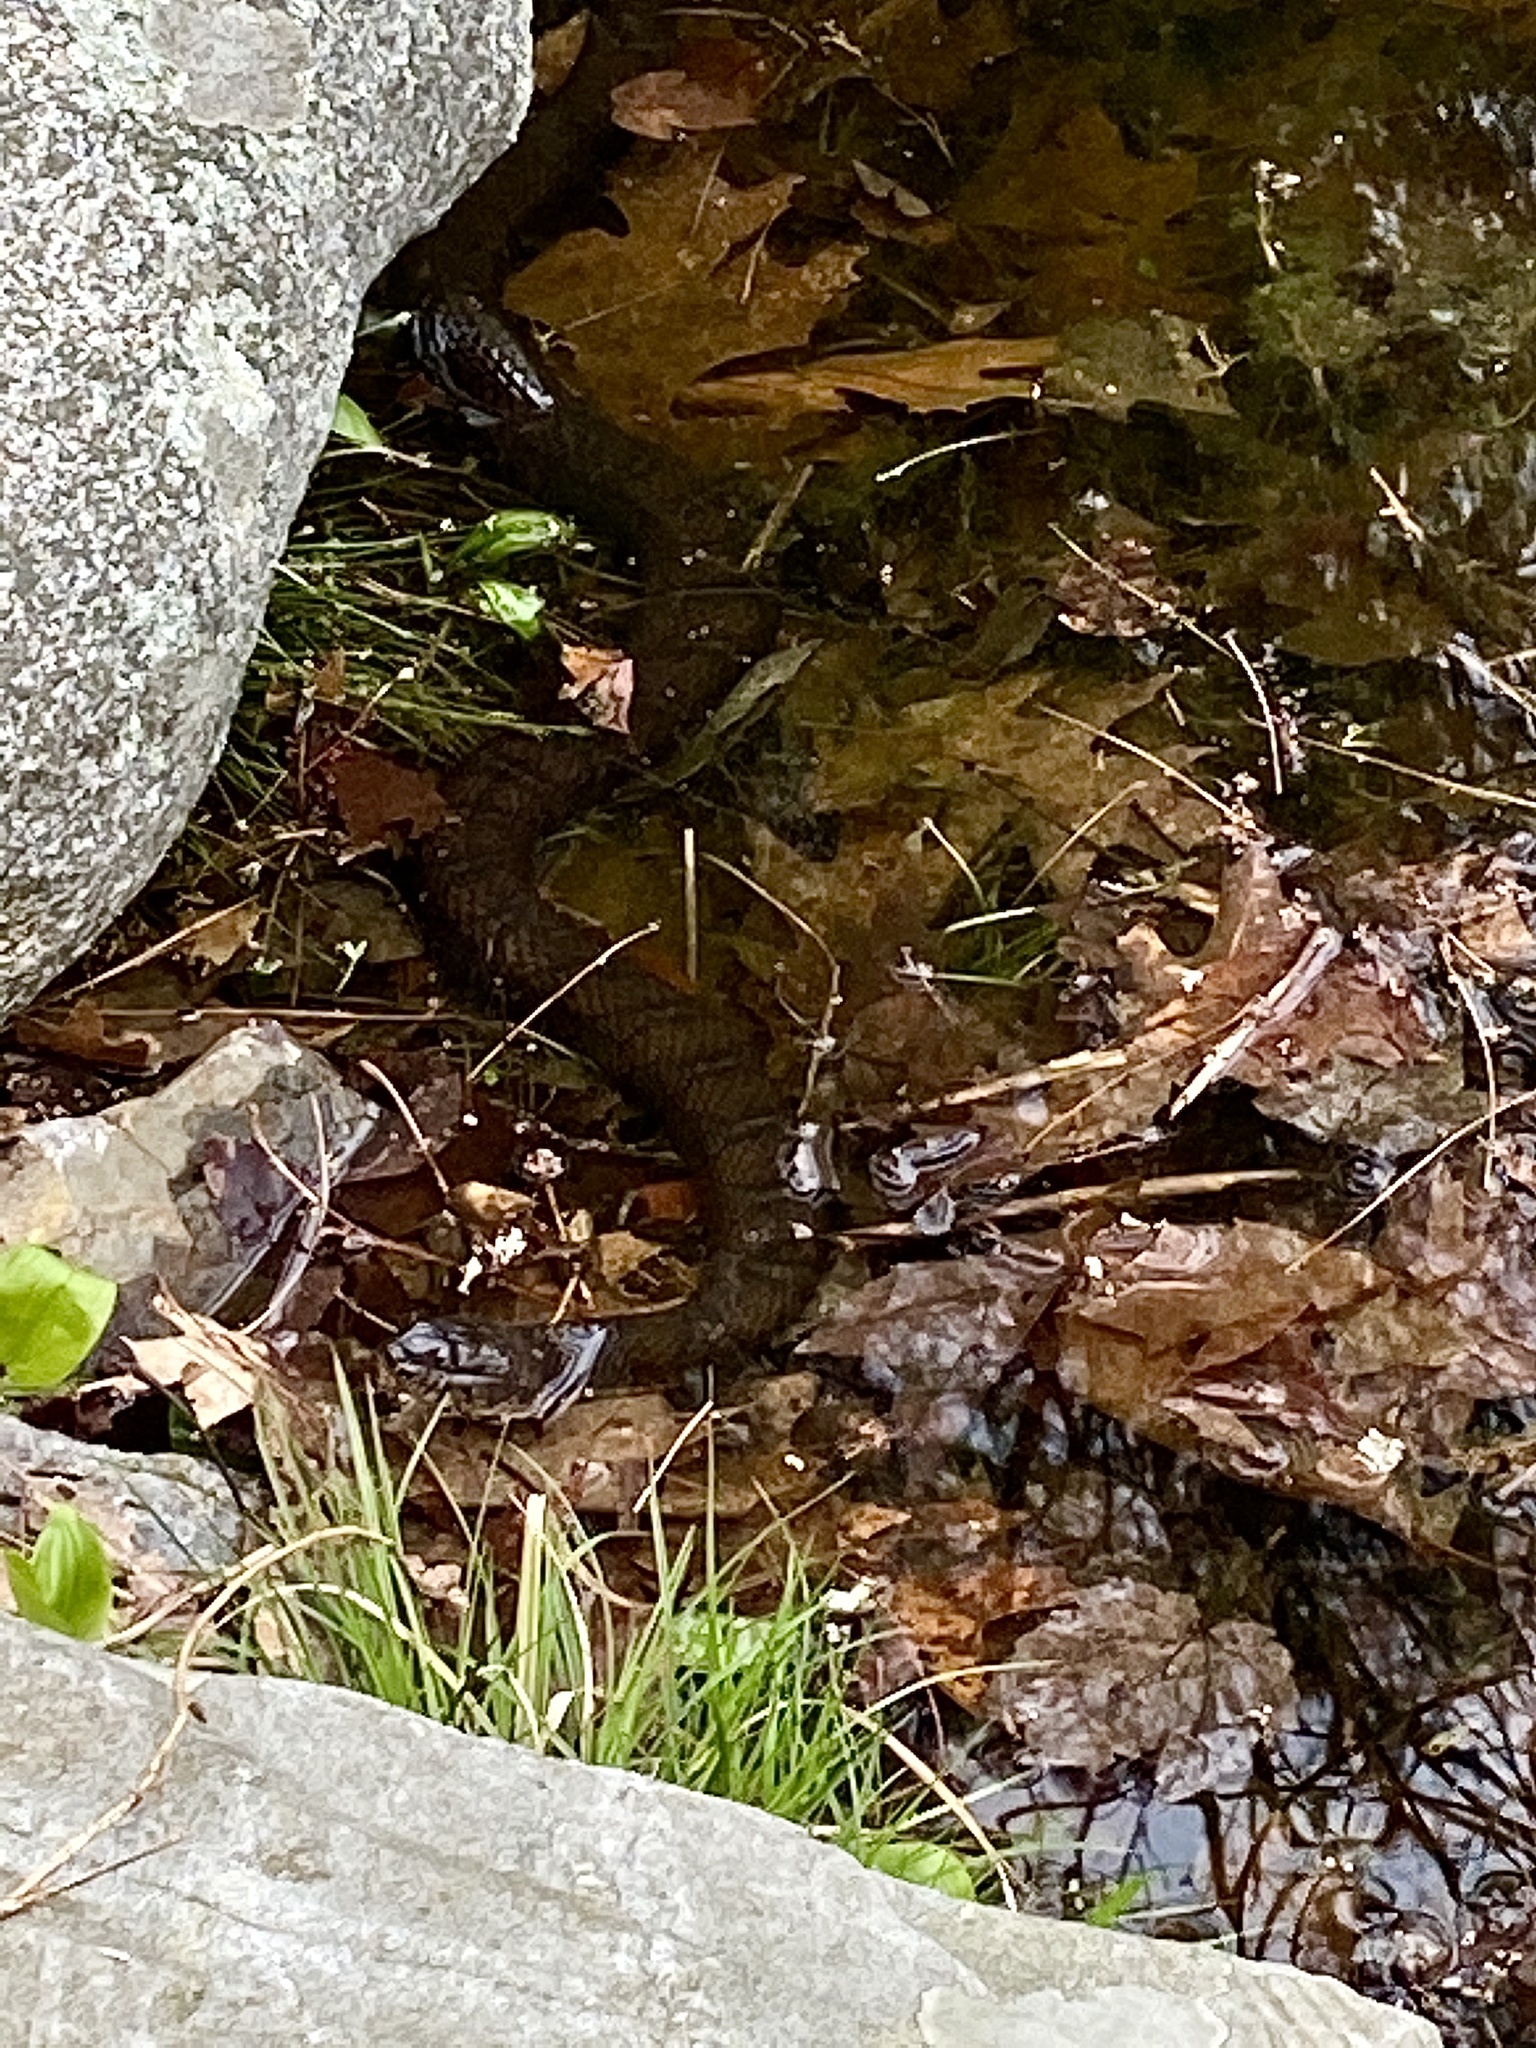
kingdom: Animalia
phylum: Chordata
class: Squamata
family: Colubridae
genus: Nerodia
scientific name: Nerodia sipedon
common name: Northern water snake
